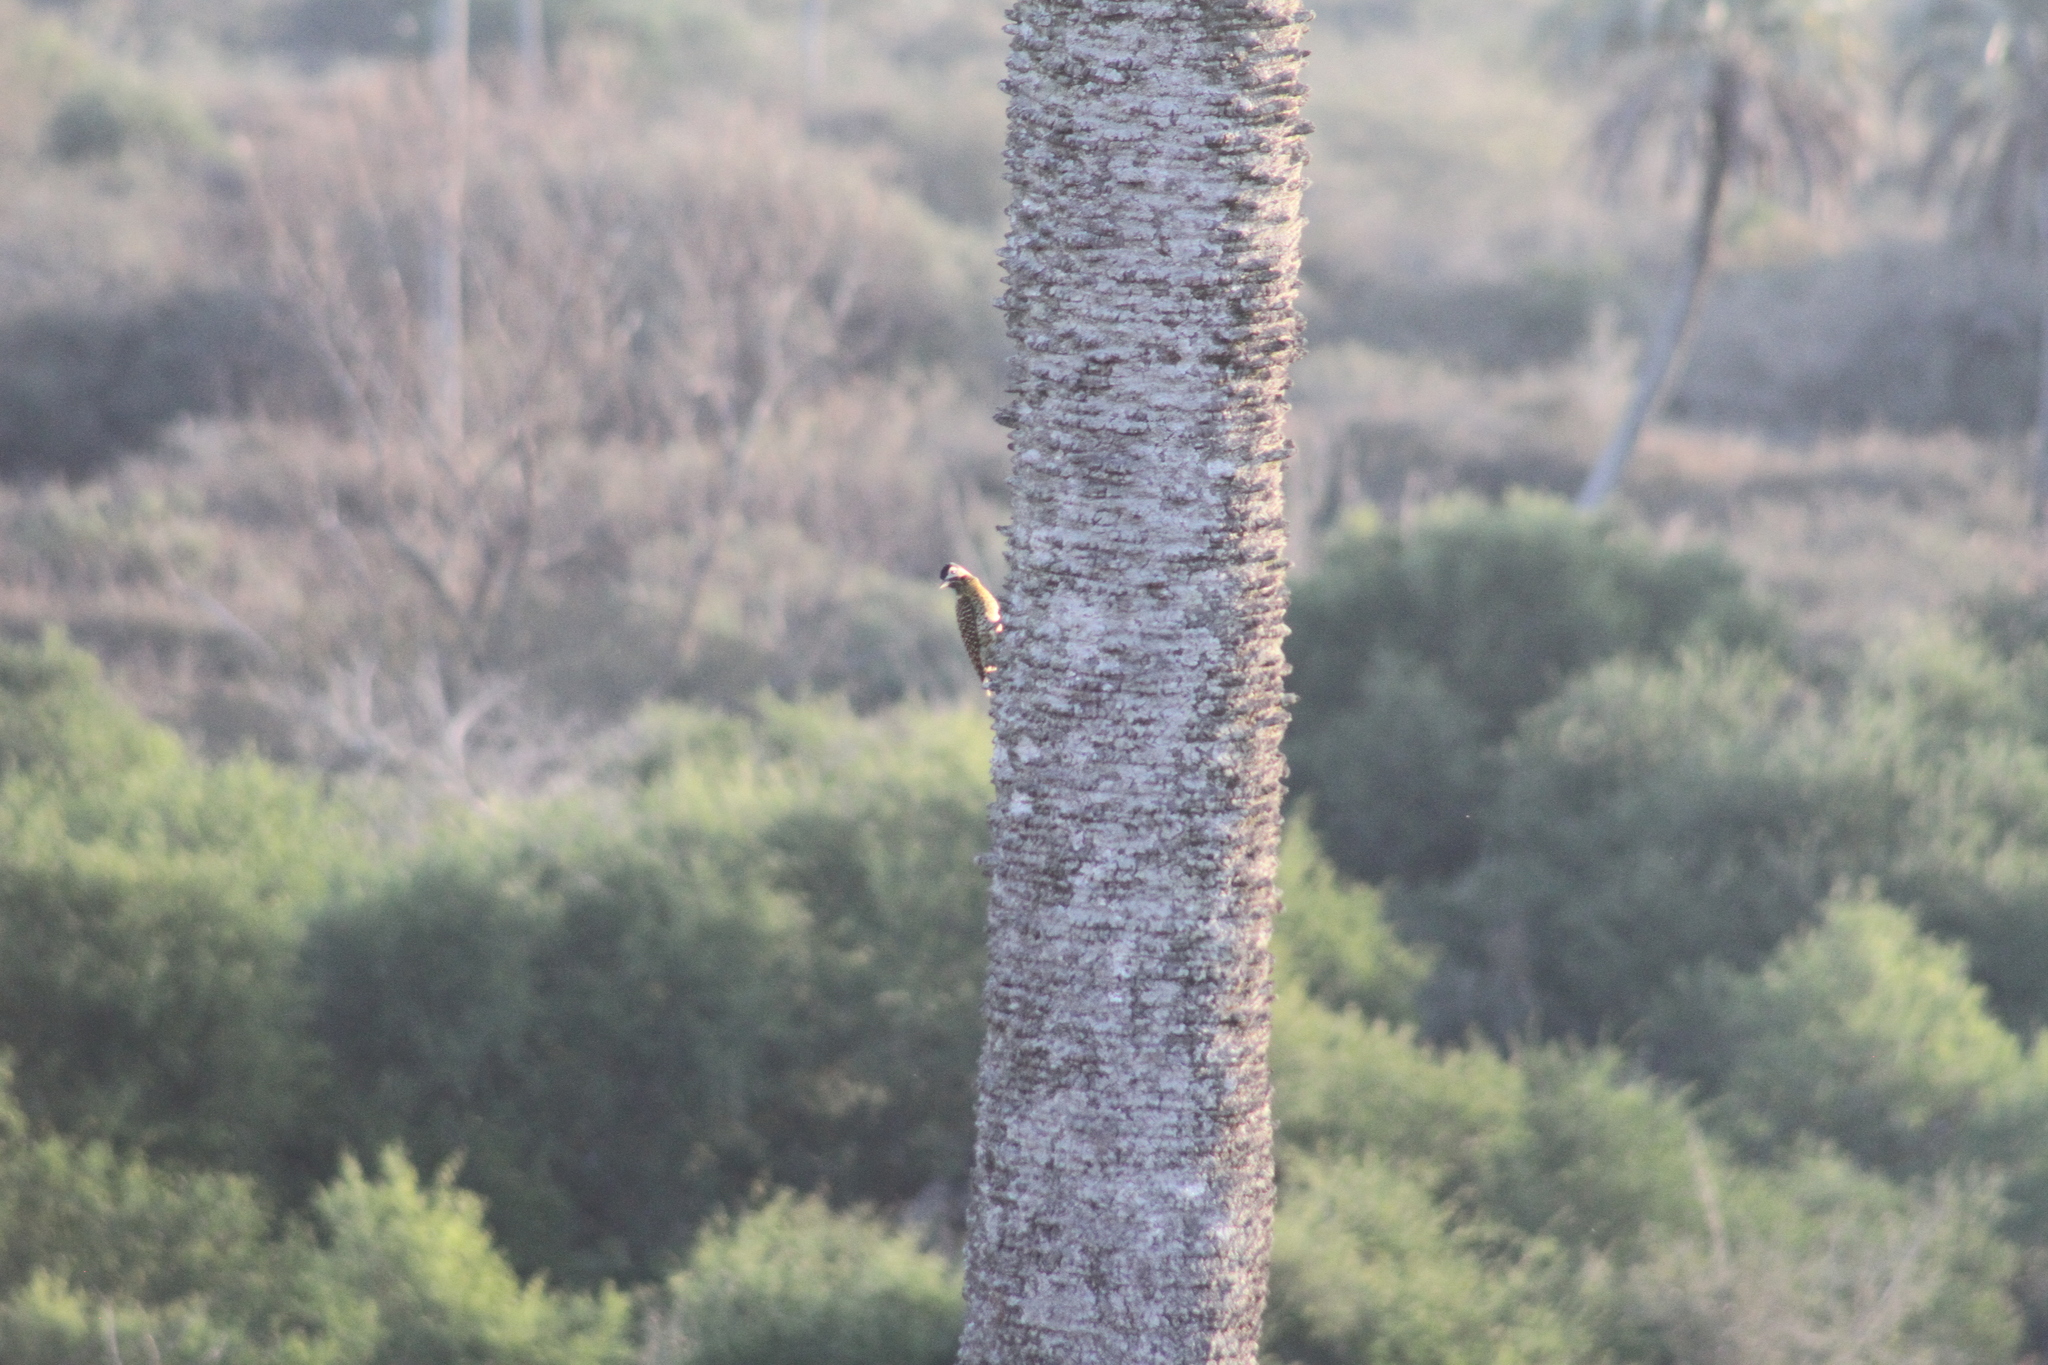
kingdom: Animalia
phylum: Chordata
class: Aves
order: Piciformes
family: Picidae
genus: Colaptes
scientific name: Colaptes melanochloros
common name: Green-barred woodpecker
